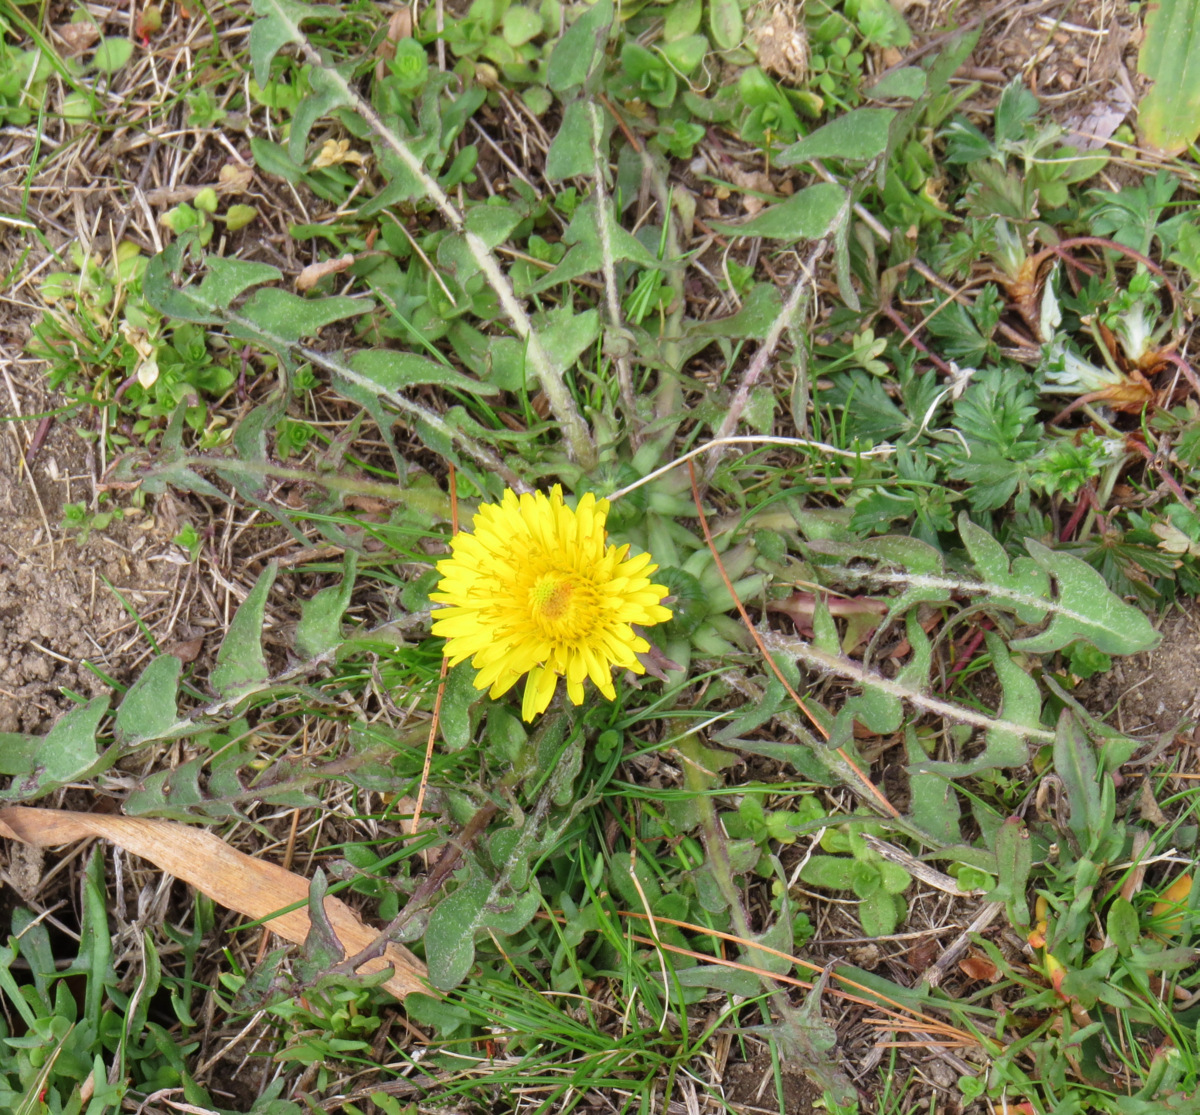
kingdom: Plantae
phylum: Tracheophyta
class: Magnoliopsida
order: Asterales
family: Asteraceae
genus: Taraxacum
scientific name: Taraxacum
